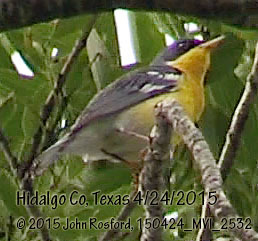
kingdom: Animalia
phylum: Chordata
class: Aves
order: Passeriformes
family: Parulidae
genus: Setophaga
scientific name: Setophaga pitiayumi
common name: Tropical parula
